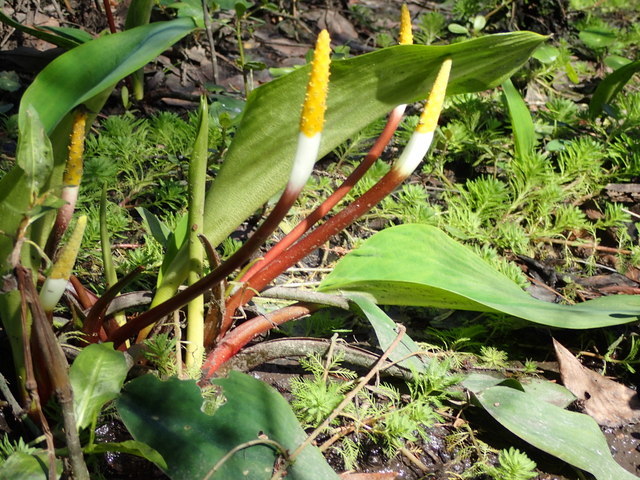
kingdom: Plantae
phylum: Tracheophyta
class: Liliopsida
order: Alismatales
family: Araceae
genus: Orontium
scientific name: Orontium aquaticum
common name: Golden-club
